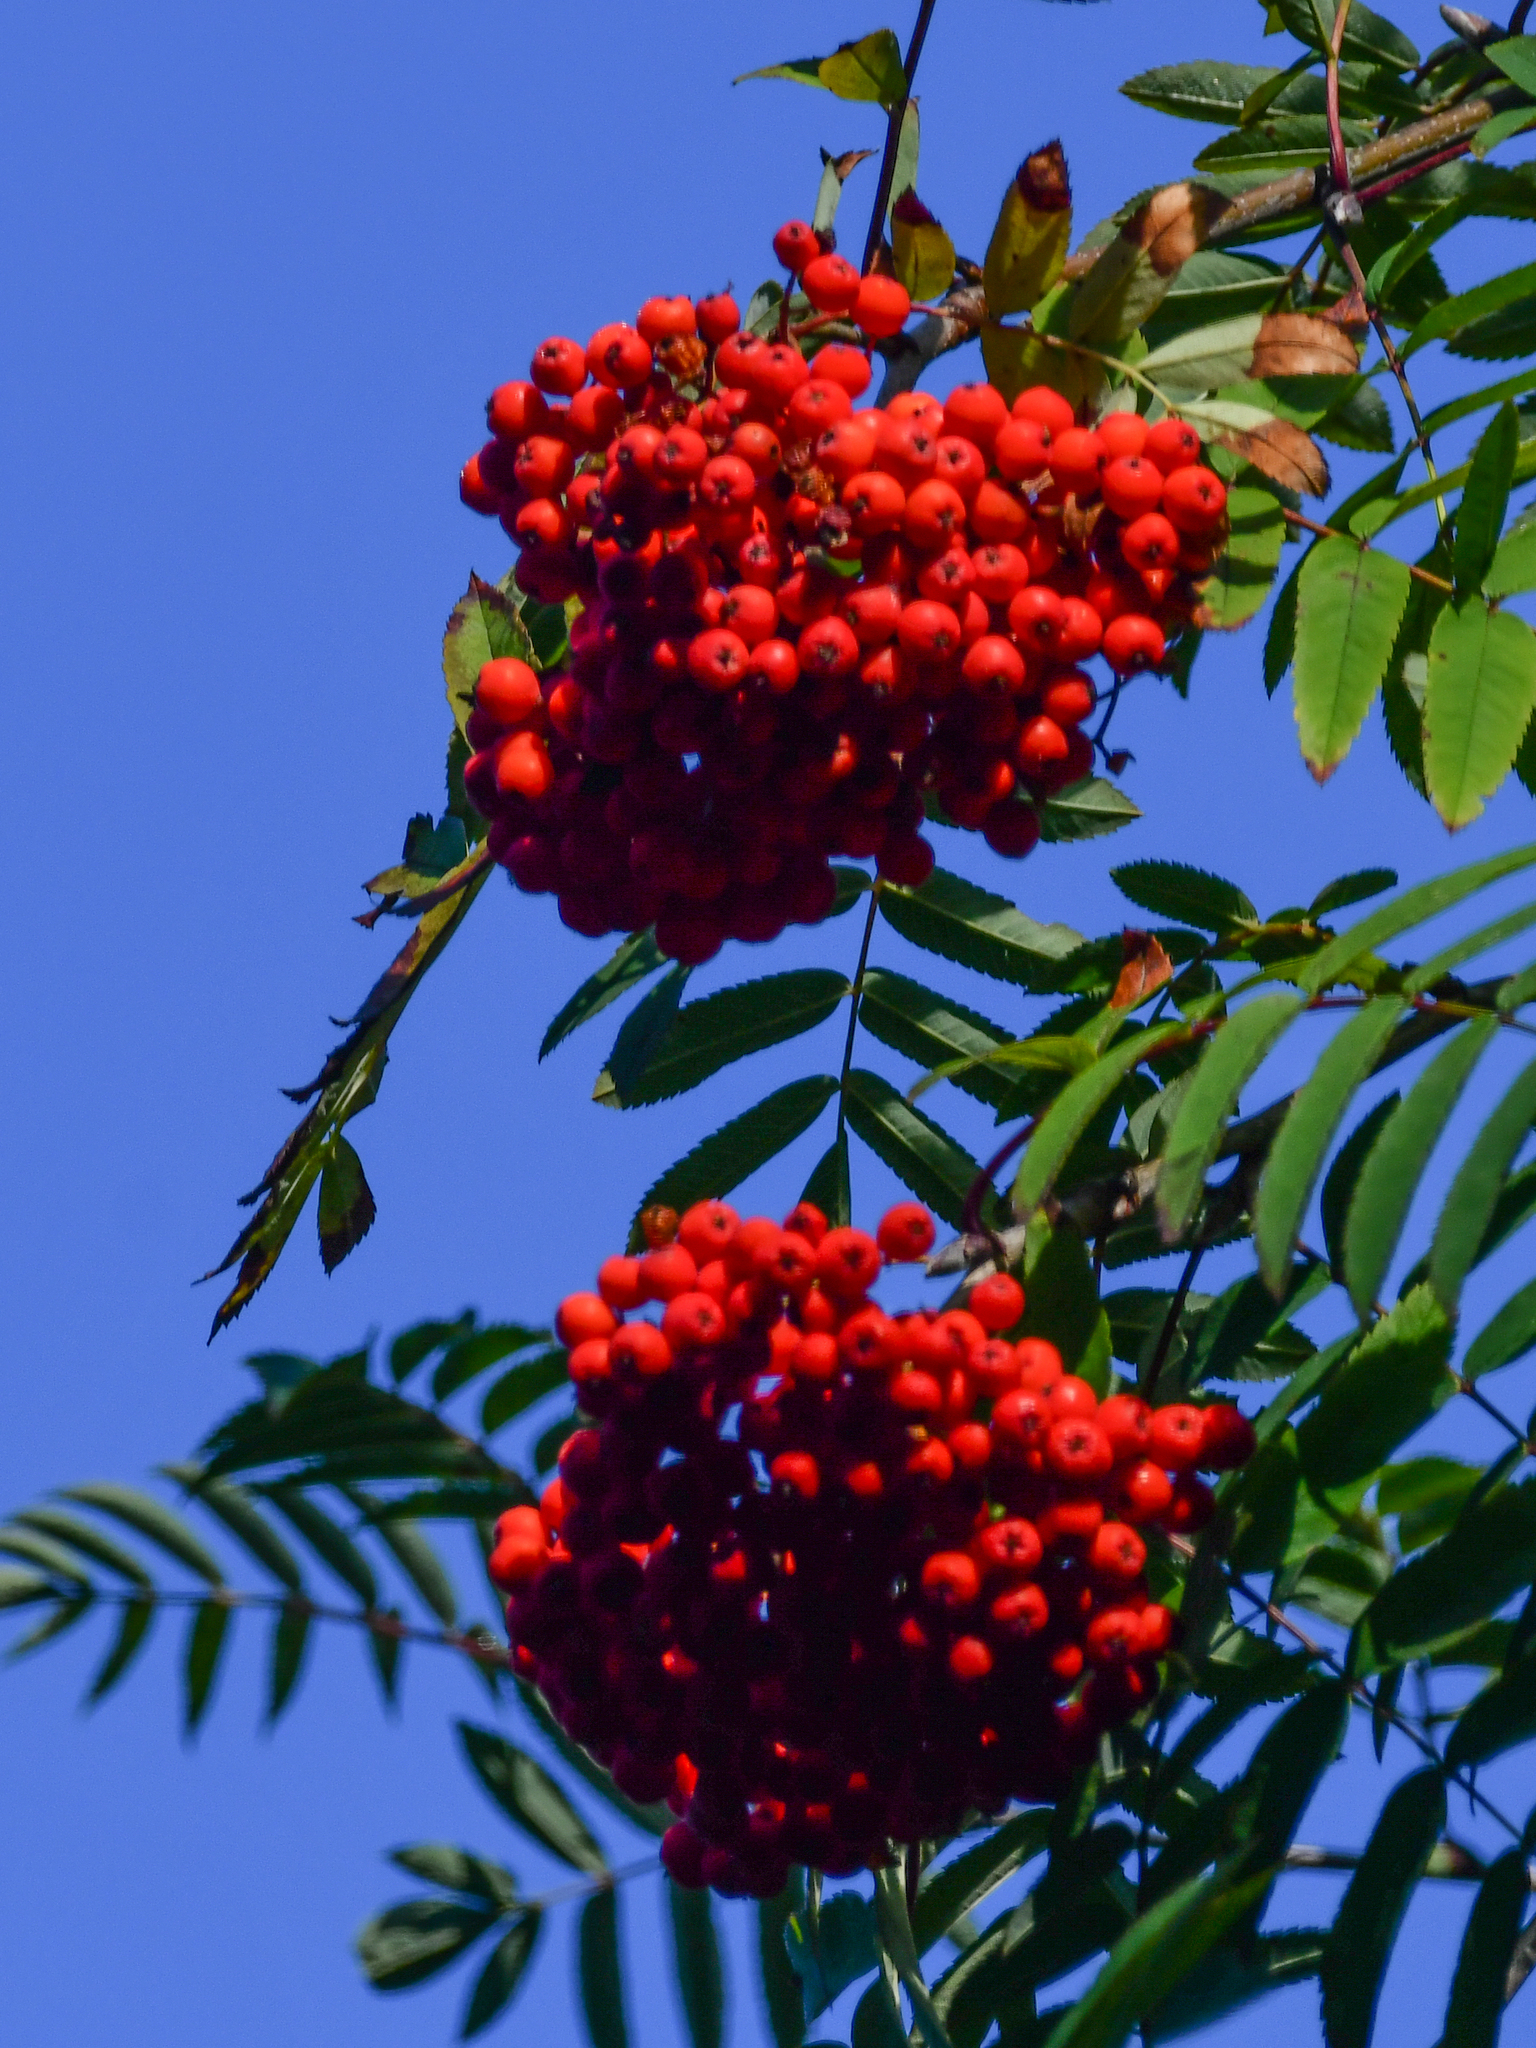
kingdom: Plantae
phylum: Tracheophyta
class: Magnoliopsida
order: Rosales
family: Rosaceae
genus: Sorbus
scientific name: Sorbus aucuparia
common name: Rowan
